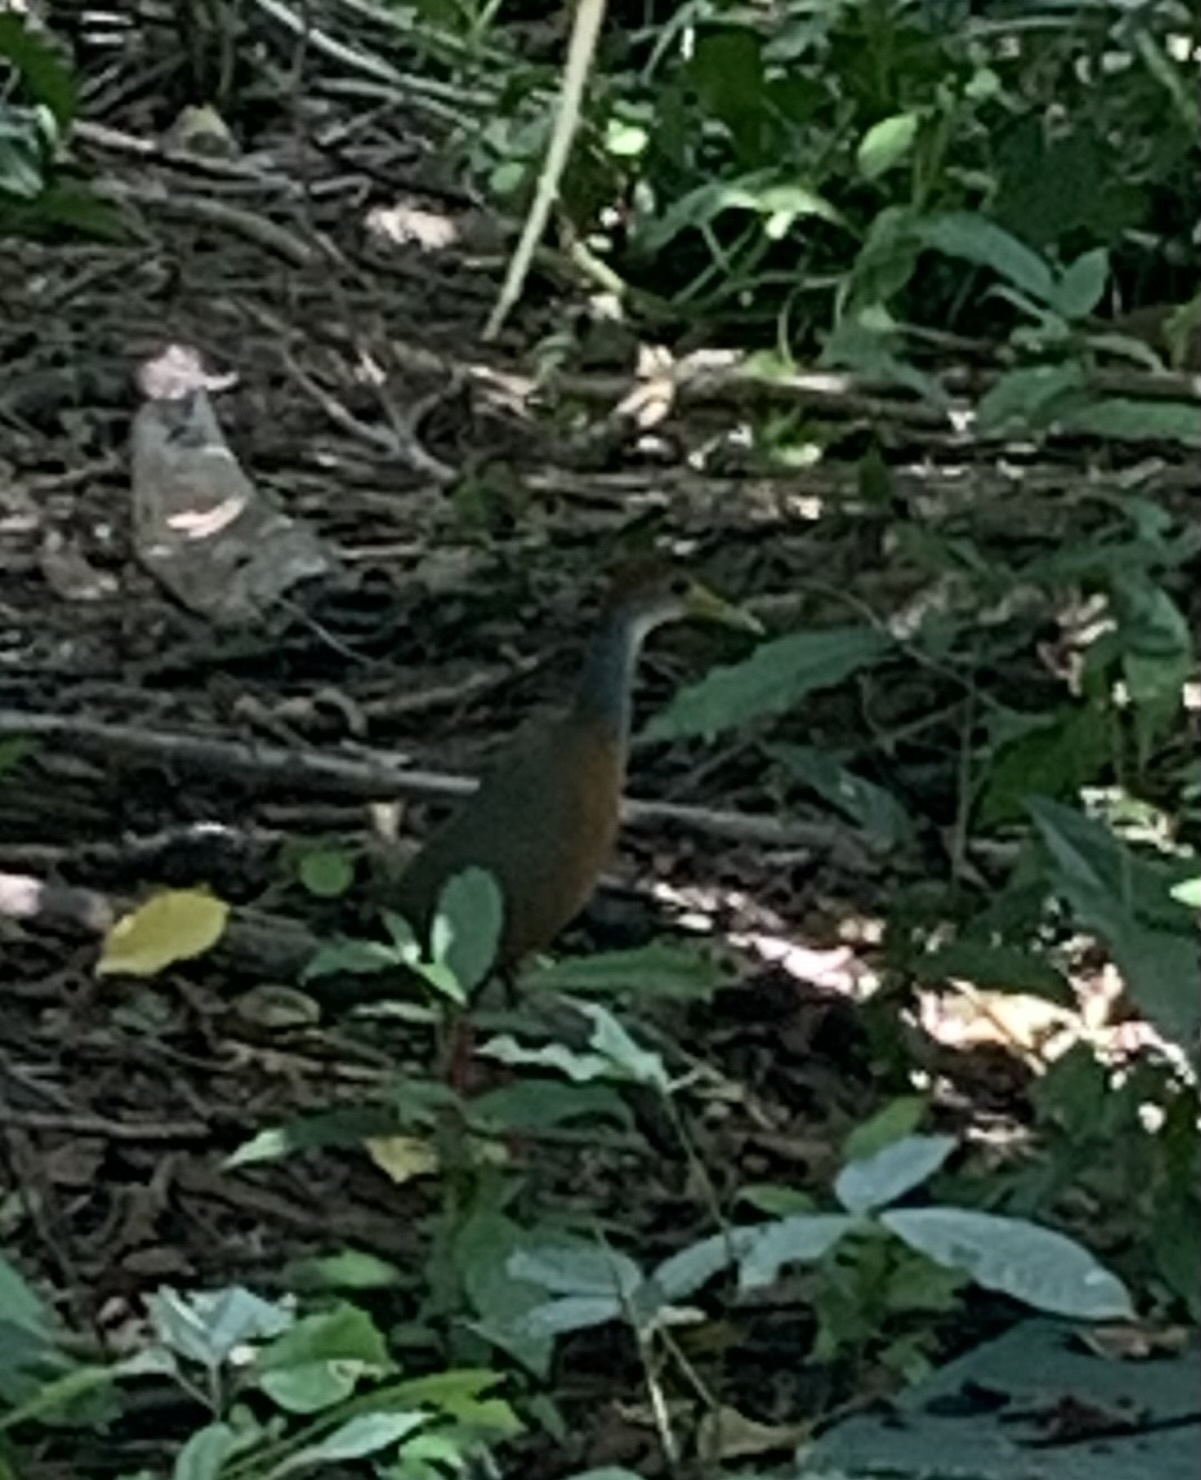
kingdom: Animalia
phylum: Chordata
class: Aves
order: Gruiformes
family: Rallidae
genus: Aramides
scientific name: Aramides albiventris
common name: Russet-naped wood-rail
